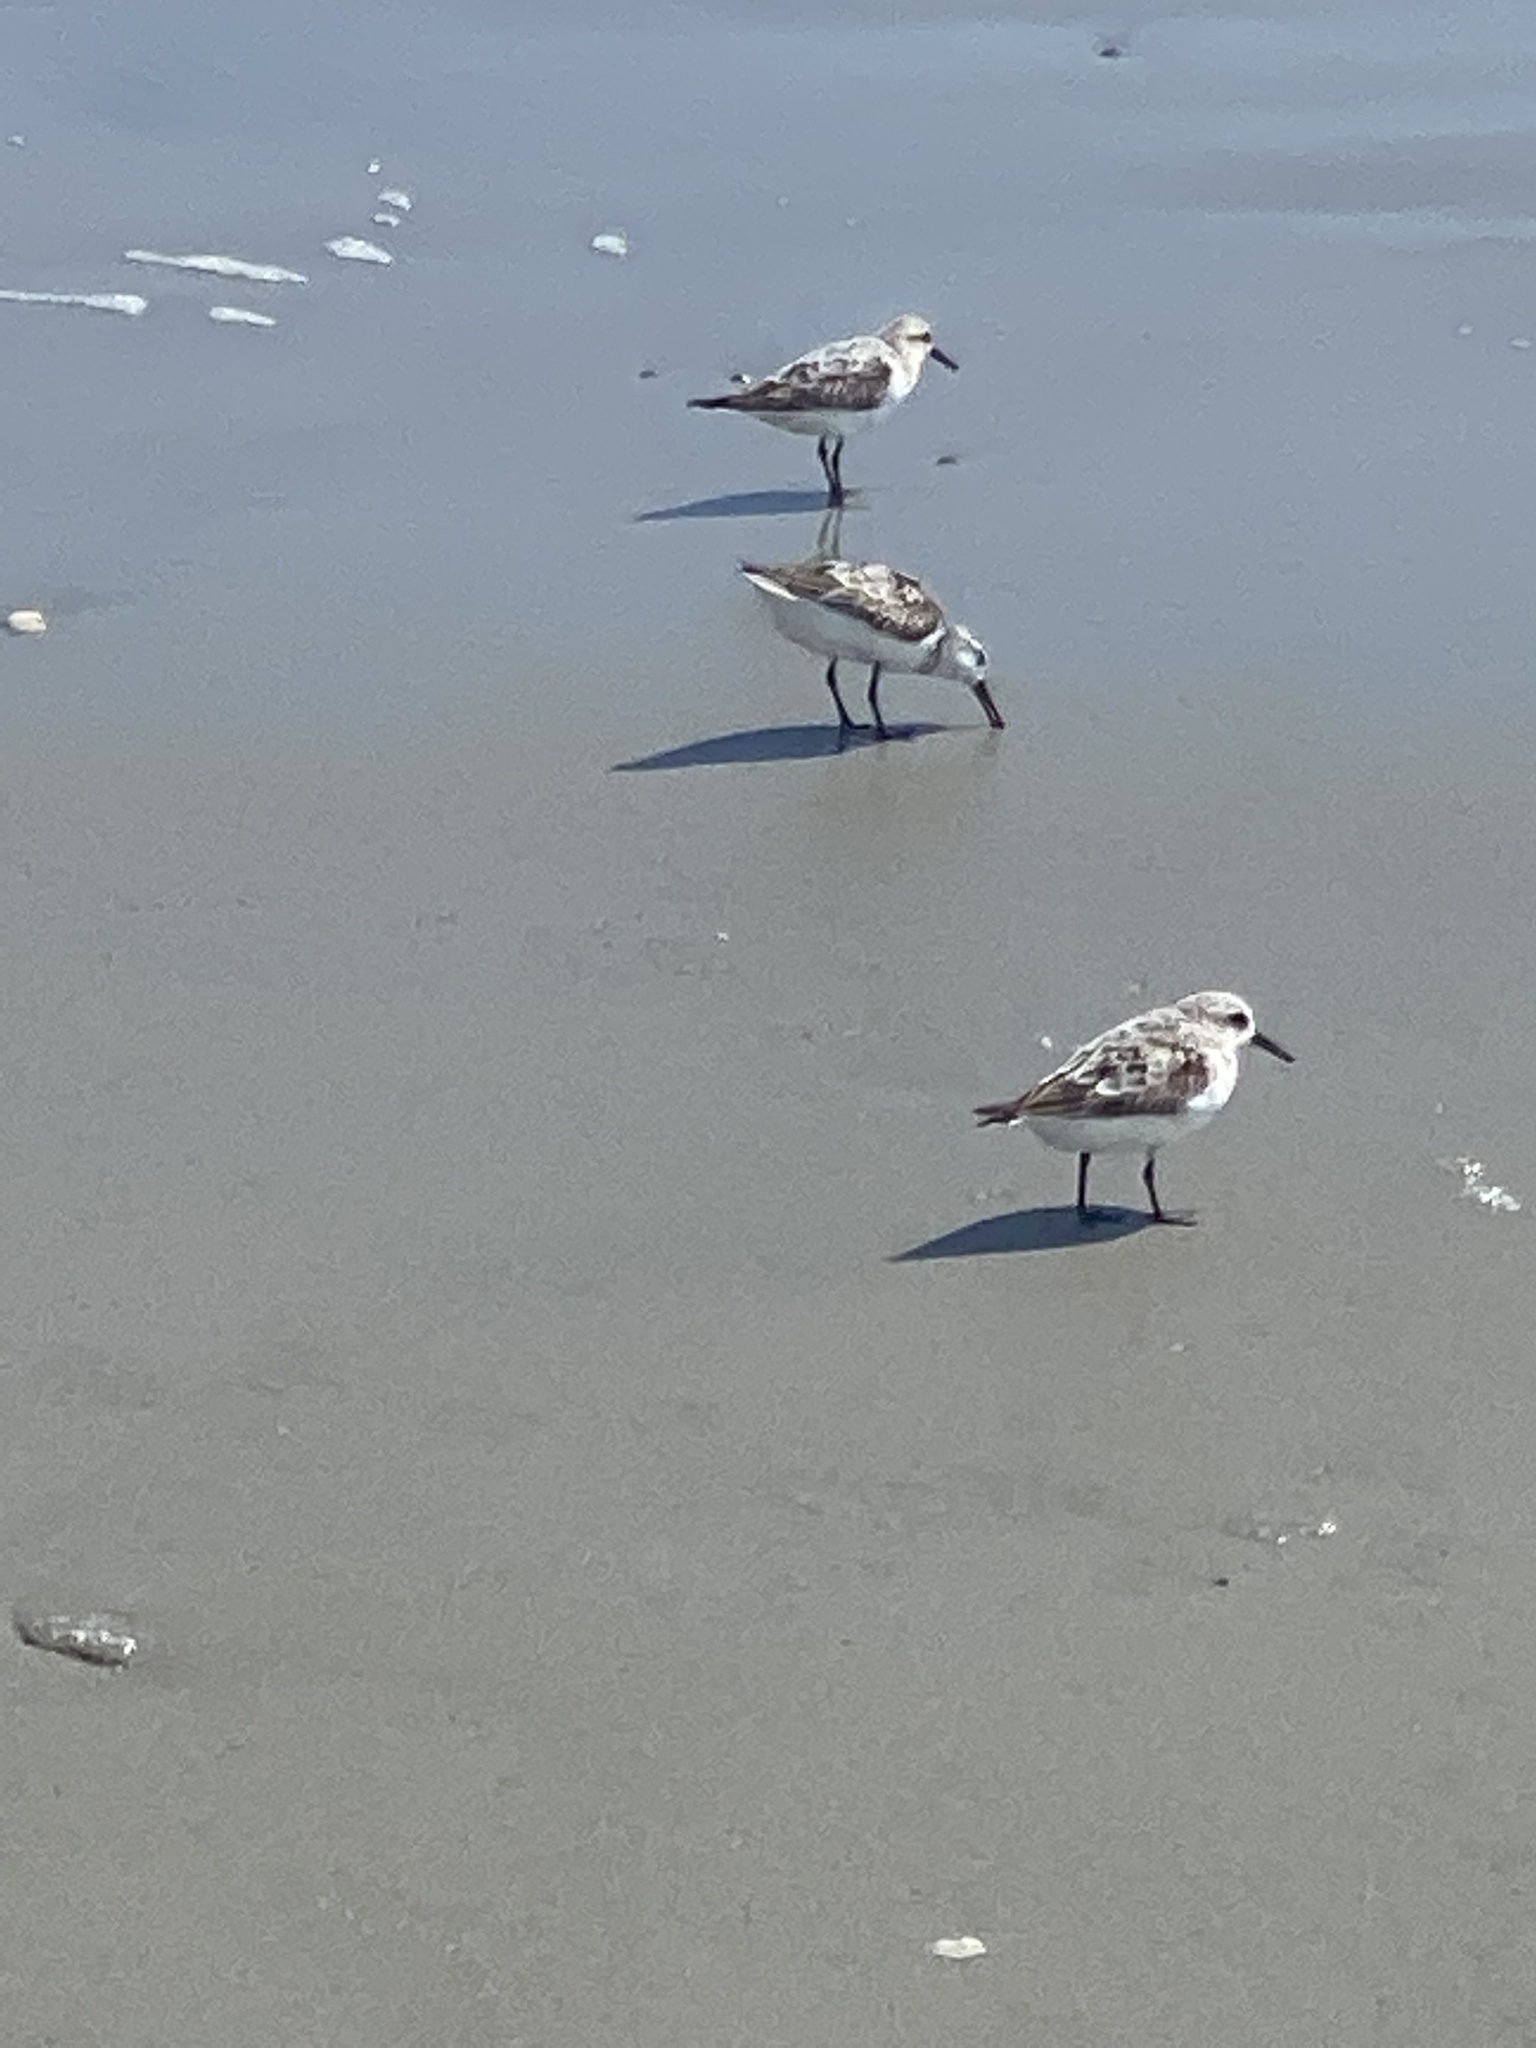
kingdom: Animalia
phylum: Chordata
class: Aves
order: Charadriiformes
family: Scolopacidae
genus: Calidris
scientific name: Calidris alba
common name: Sanderling
